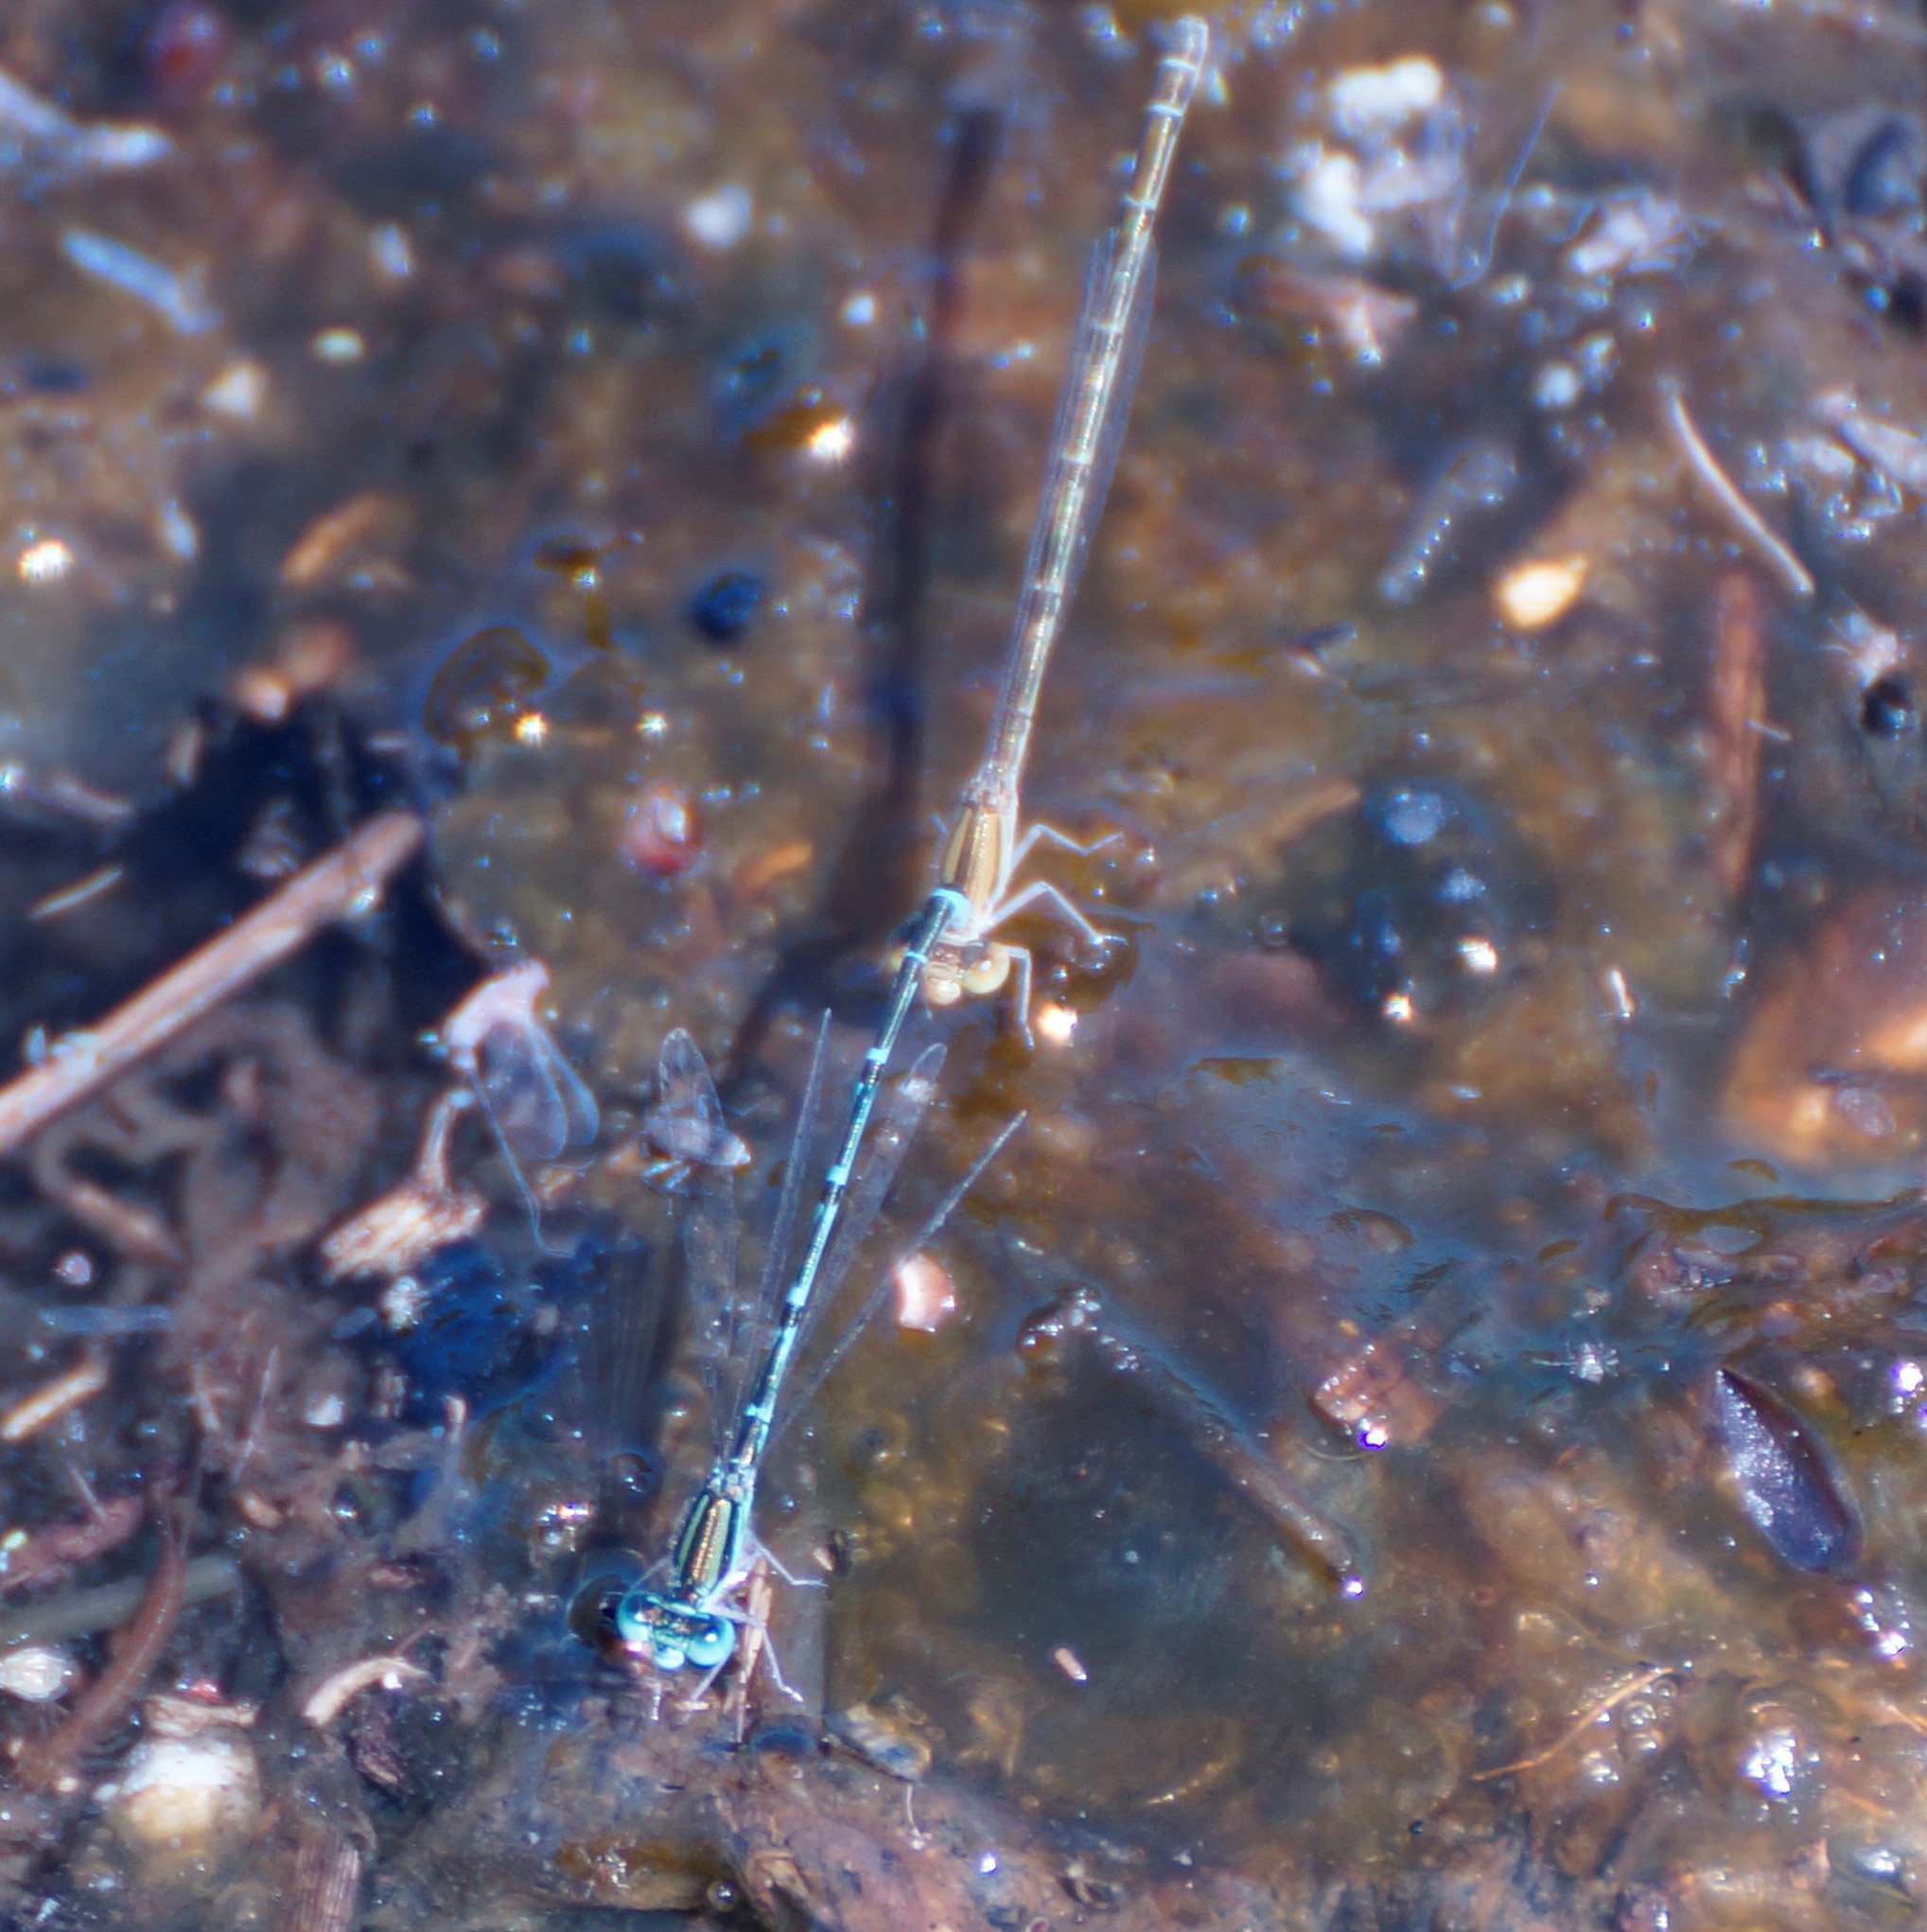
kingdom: Animalia
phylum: Arthropoda
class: Insecta
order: Odonata
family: Coenagrionidae
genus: Austroagrion
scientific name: Austroagrion exclamationis
